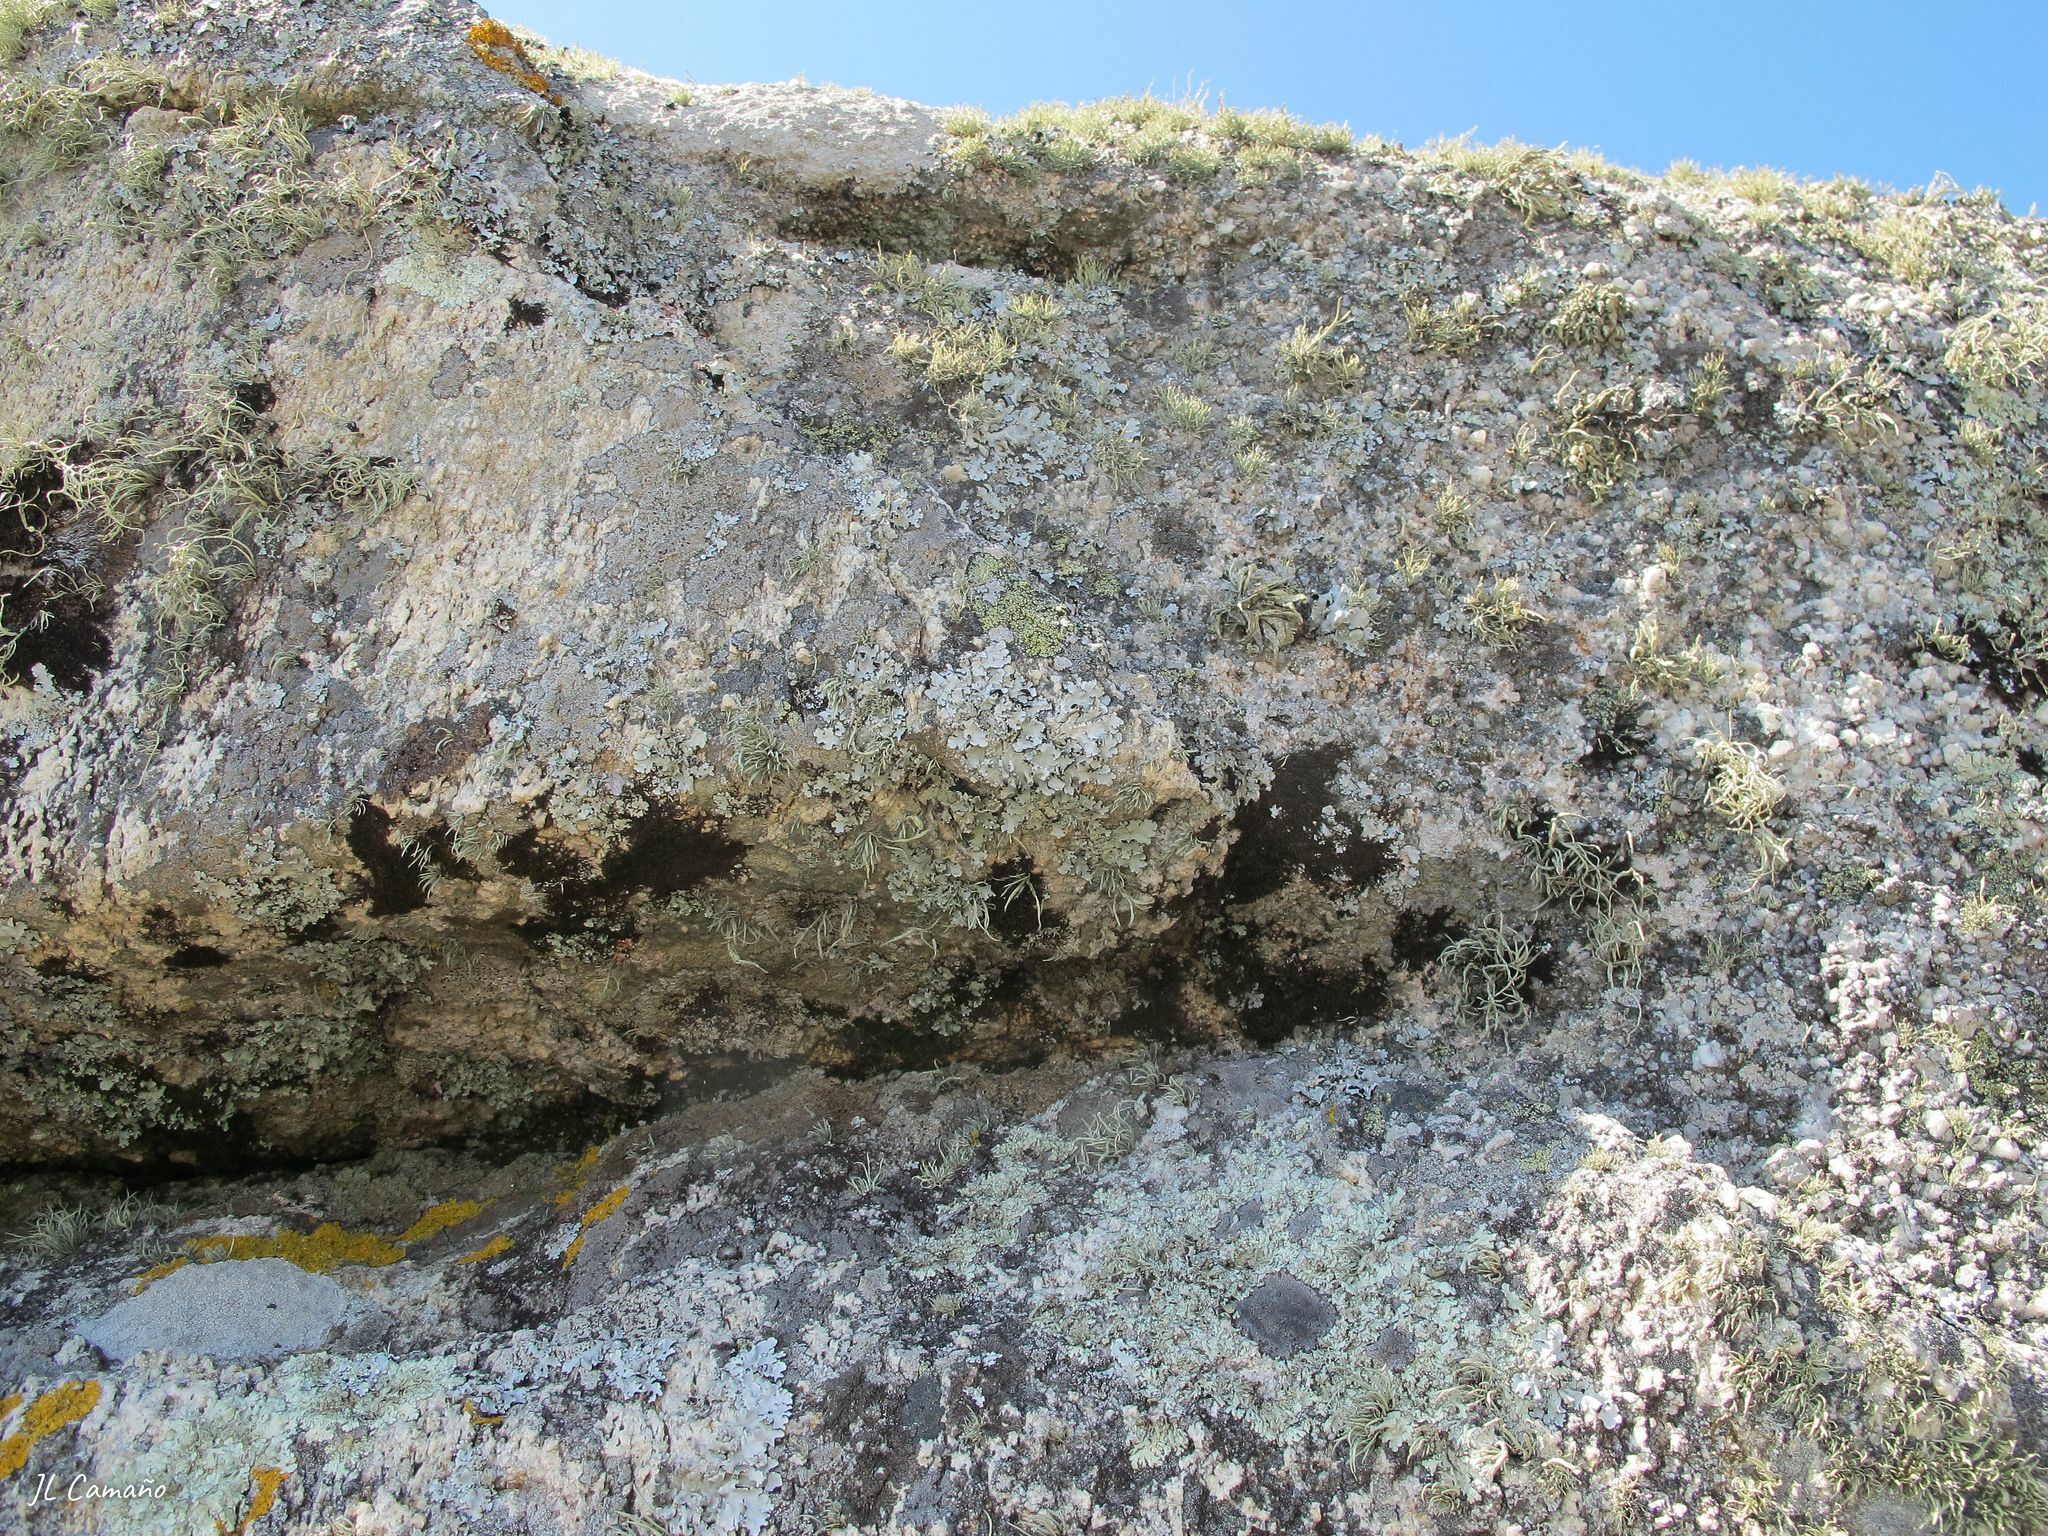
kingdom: Plantae
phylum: Marchantiophyta
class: Jungermanniopsida
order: Porellales
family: Frullaniaceae
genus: Frullania
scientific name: Frullania dilatata
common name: Dilated scalewort
